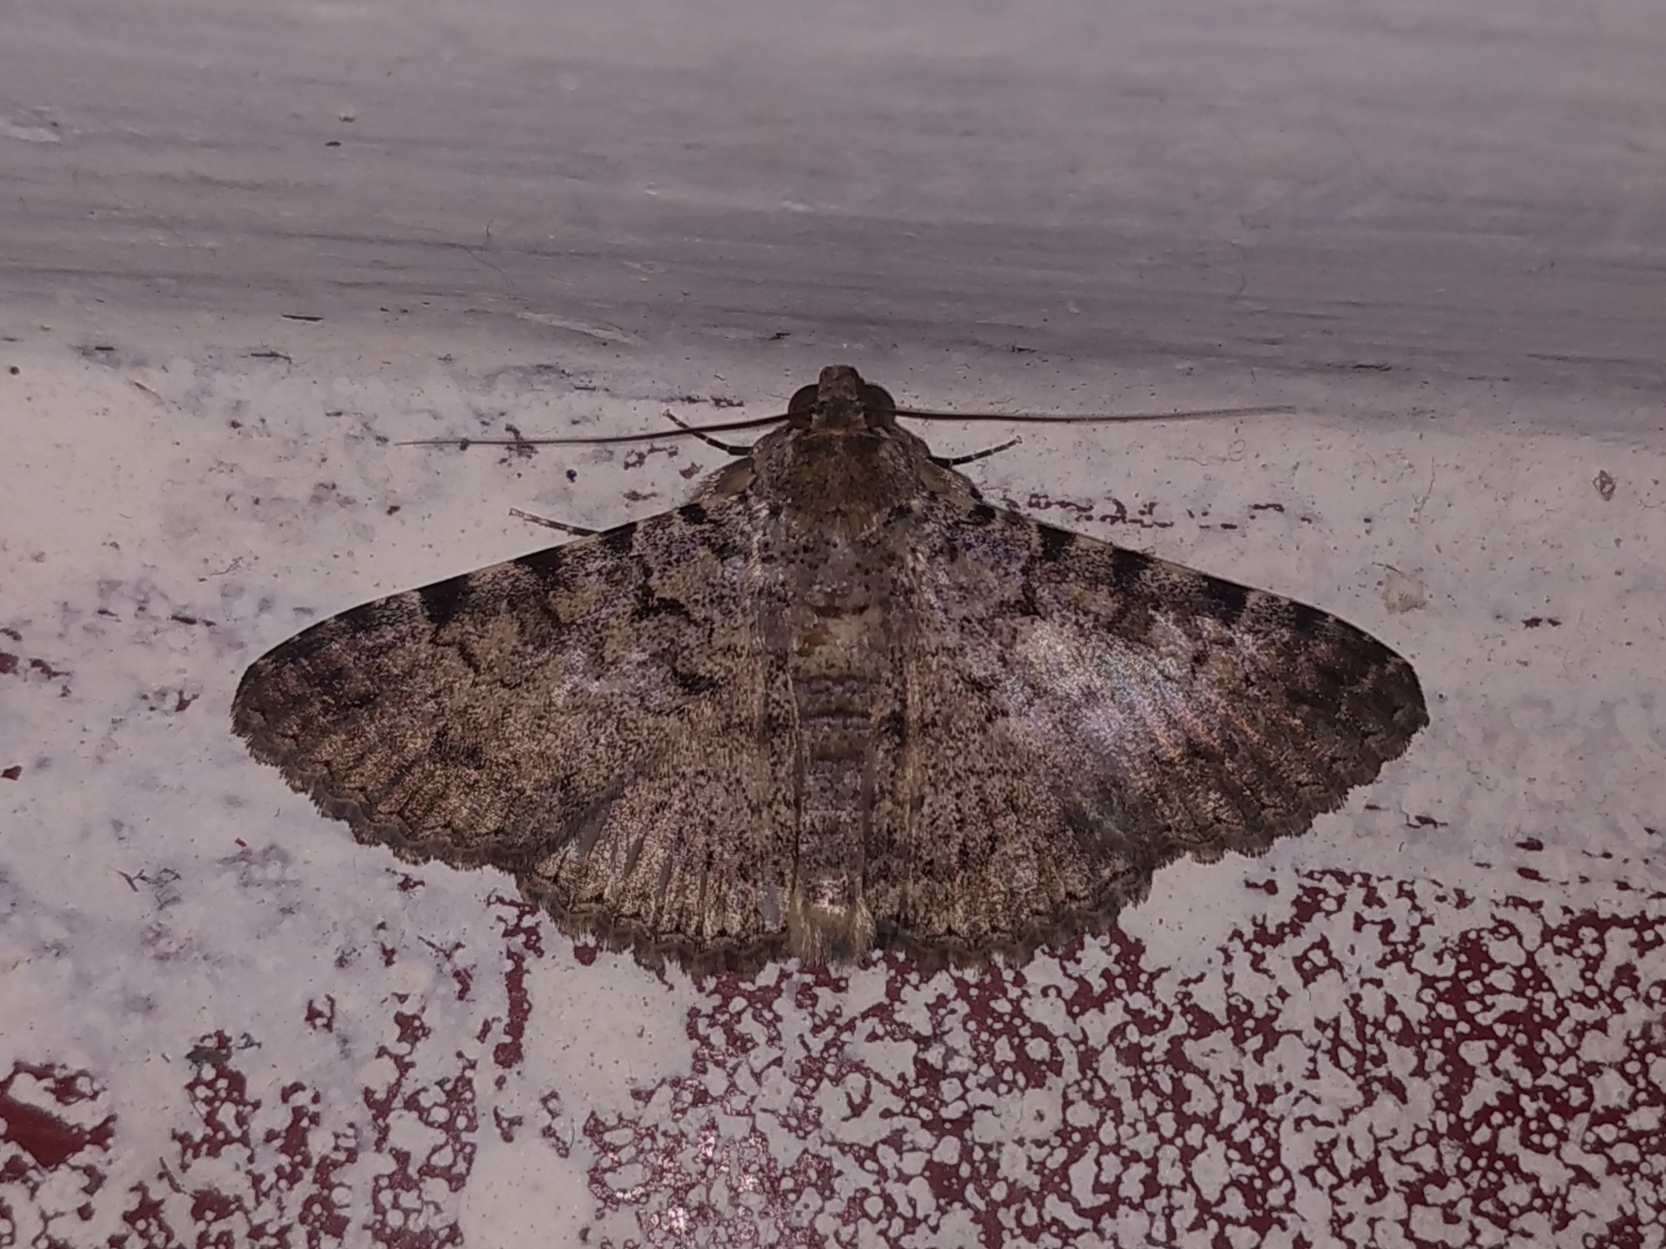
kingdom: Animalia
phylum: Arthropoda
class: Insecta
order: Lepidoptera
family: Erebidae
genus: Polydesma
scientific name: Polydesma boarmoides
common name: Moth
